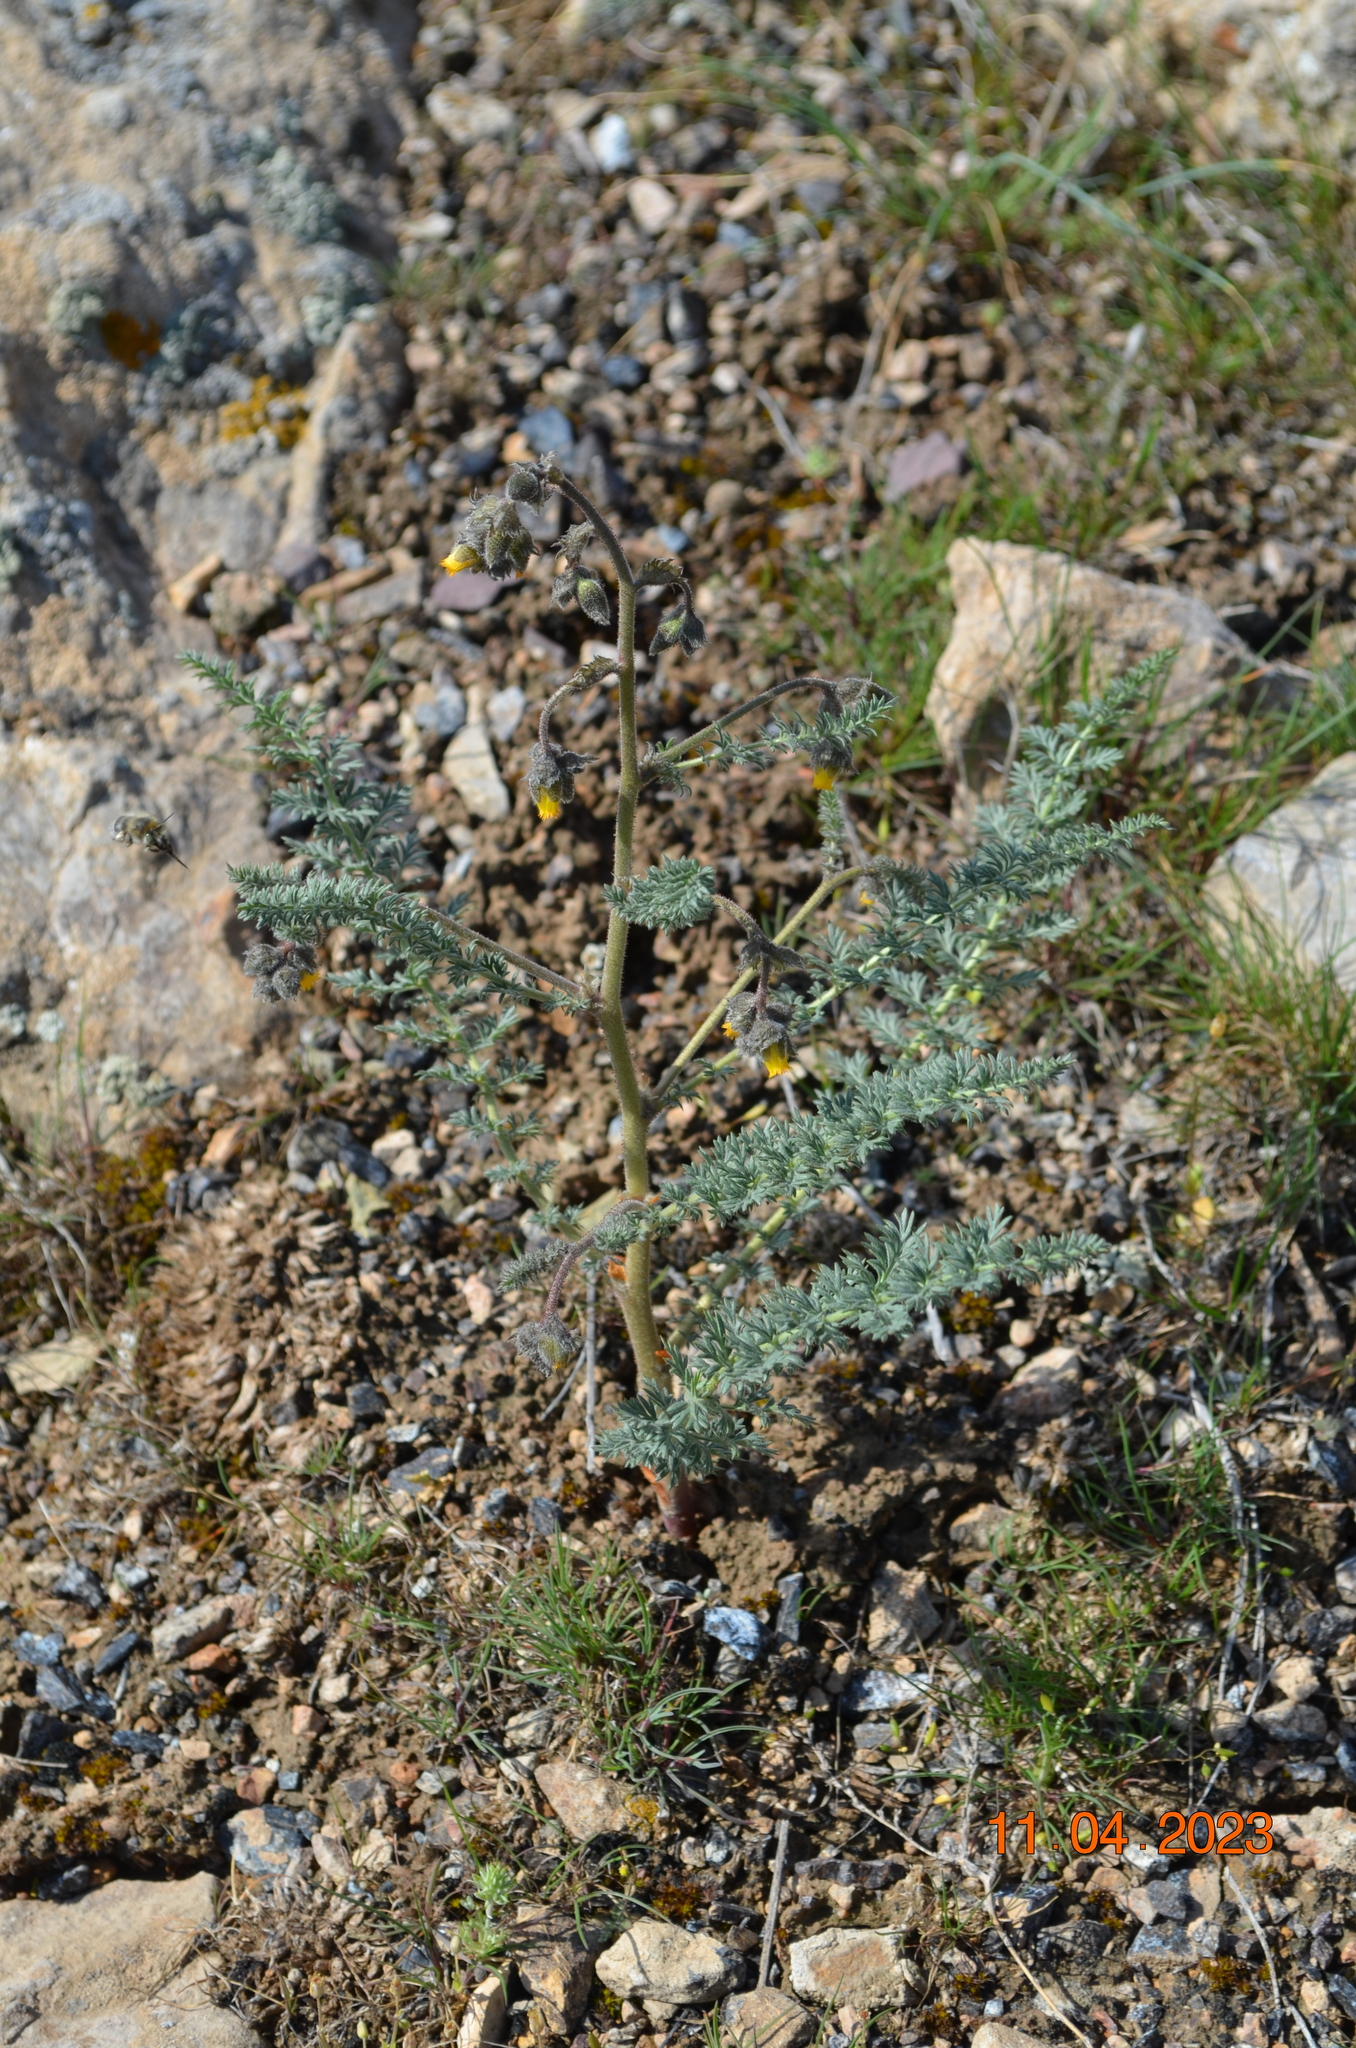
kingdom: Plantae
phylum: Tracheophyta
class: Magnoliopsida
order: Sapindales
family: Biebersteiniaceae
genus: Biebersteinia
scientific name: Biebersteinia multifida
